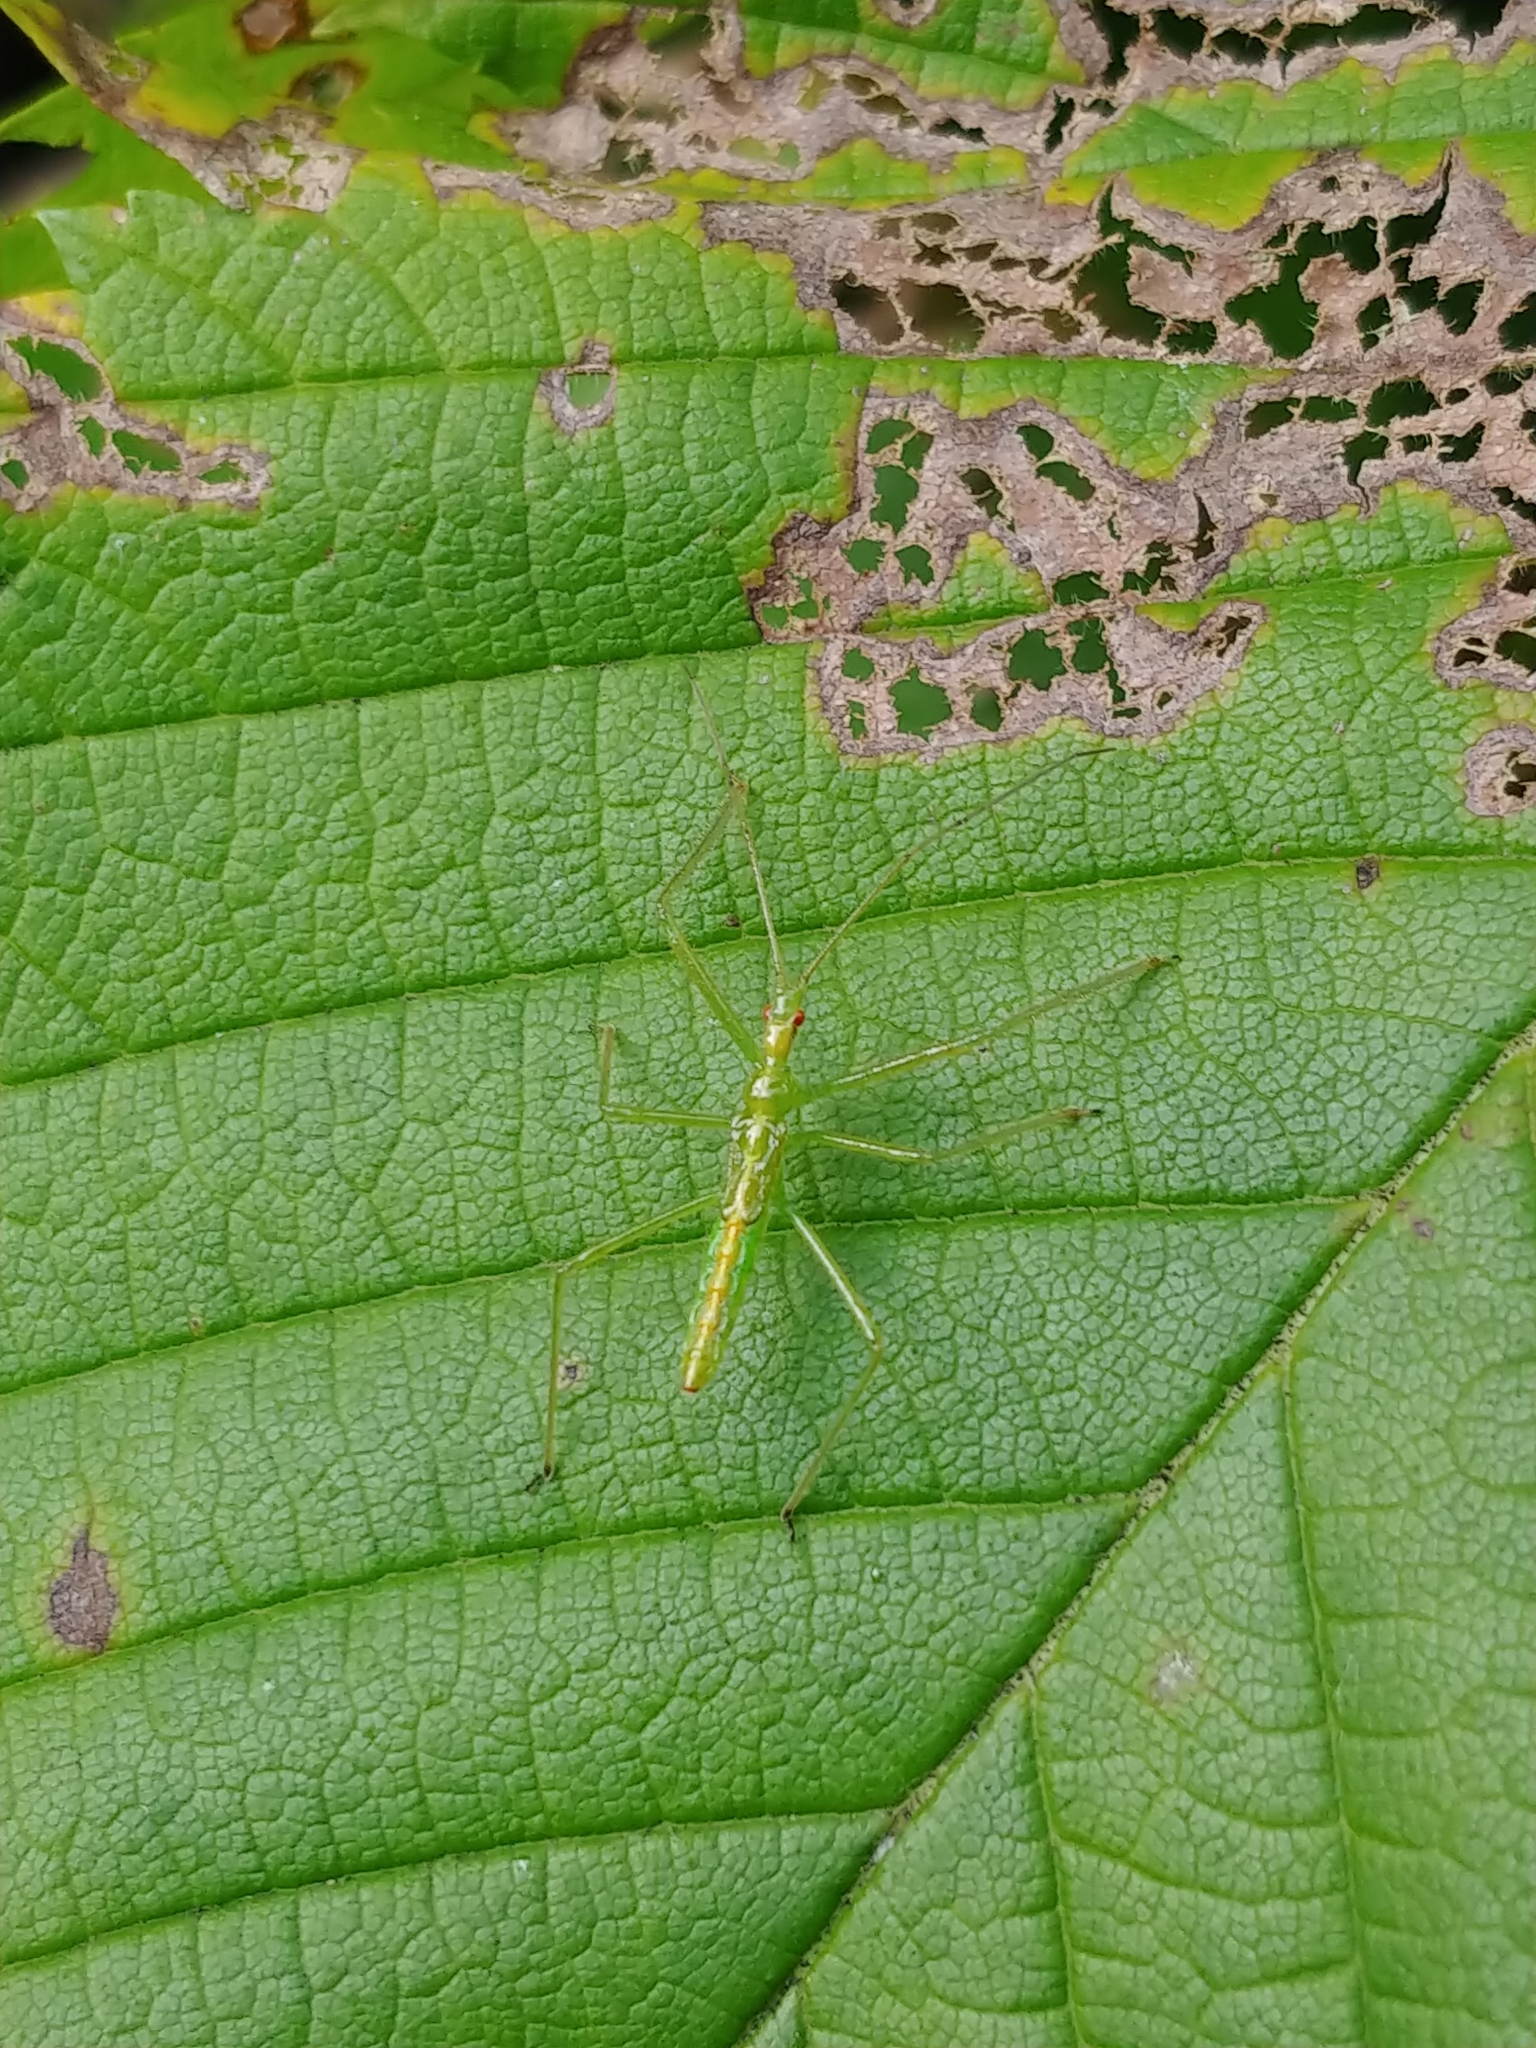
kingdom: Animalia
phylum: Arthropoda
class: Insecta
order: Hemiptera
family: Reduviidae
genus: Zelus
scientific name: Zelus luridus
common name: Pale green assassin bug
